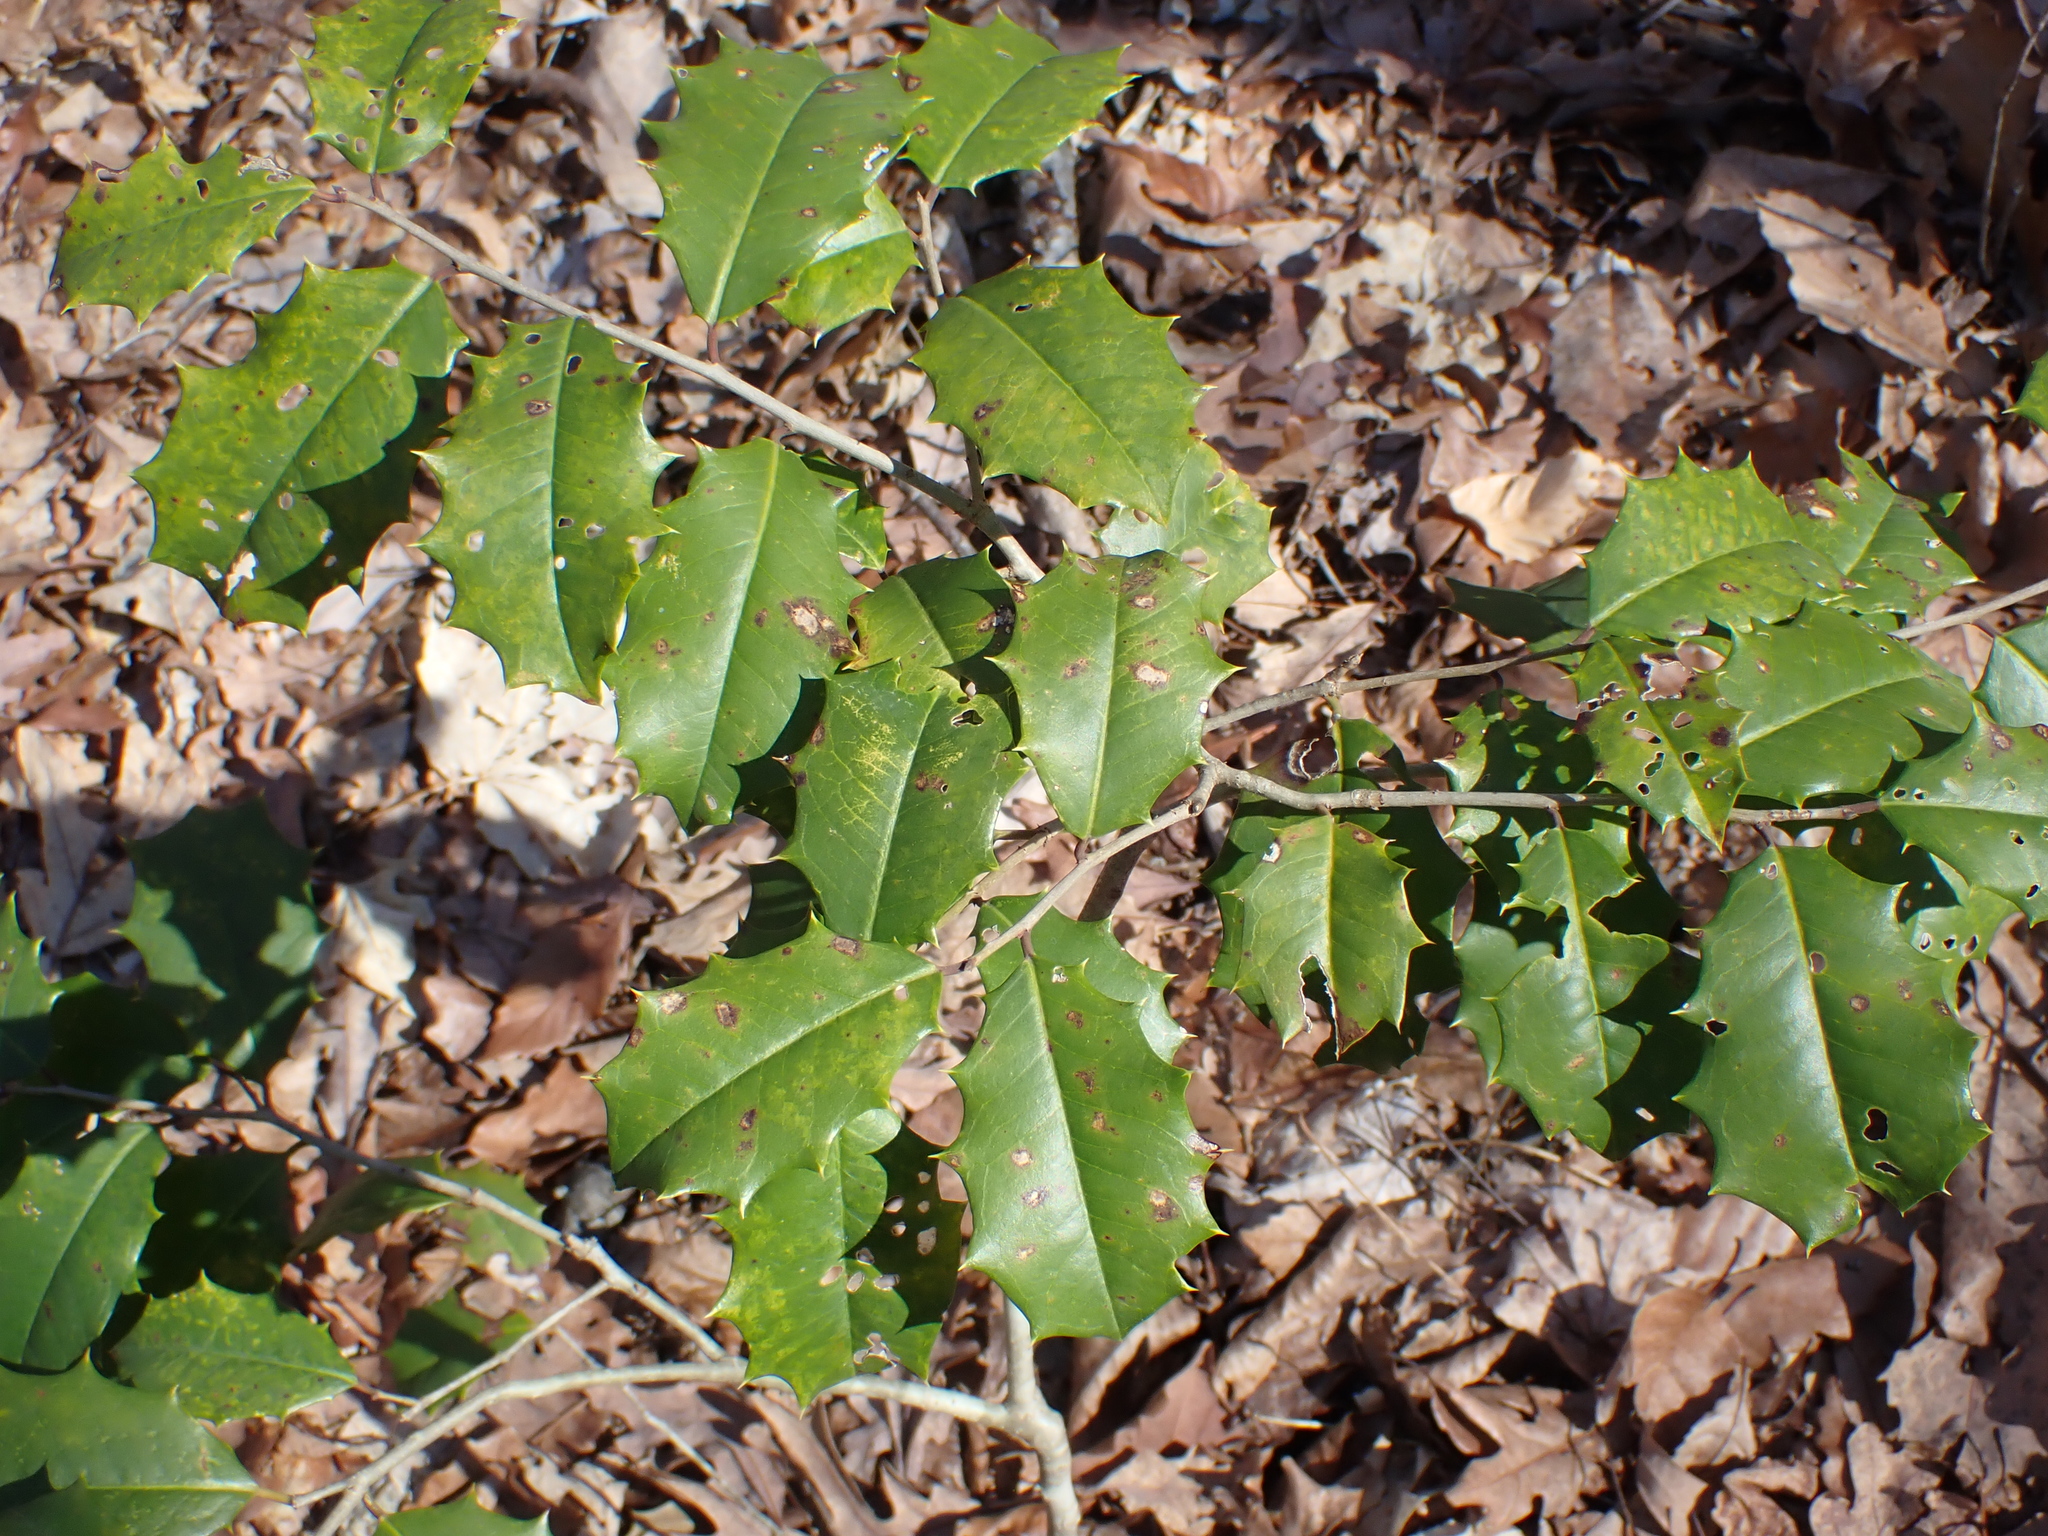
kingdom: Plantae
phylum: Tracheophyta
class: Magnoliopsida
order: Aquifoliales
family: Aquifoliaceae
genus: Ilex
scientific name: Ilex opaca
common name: American holly
